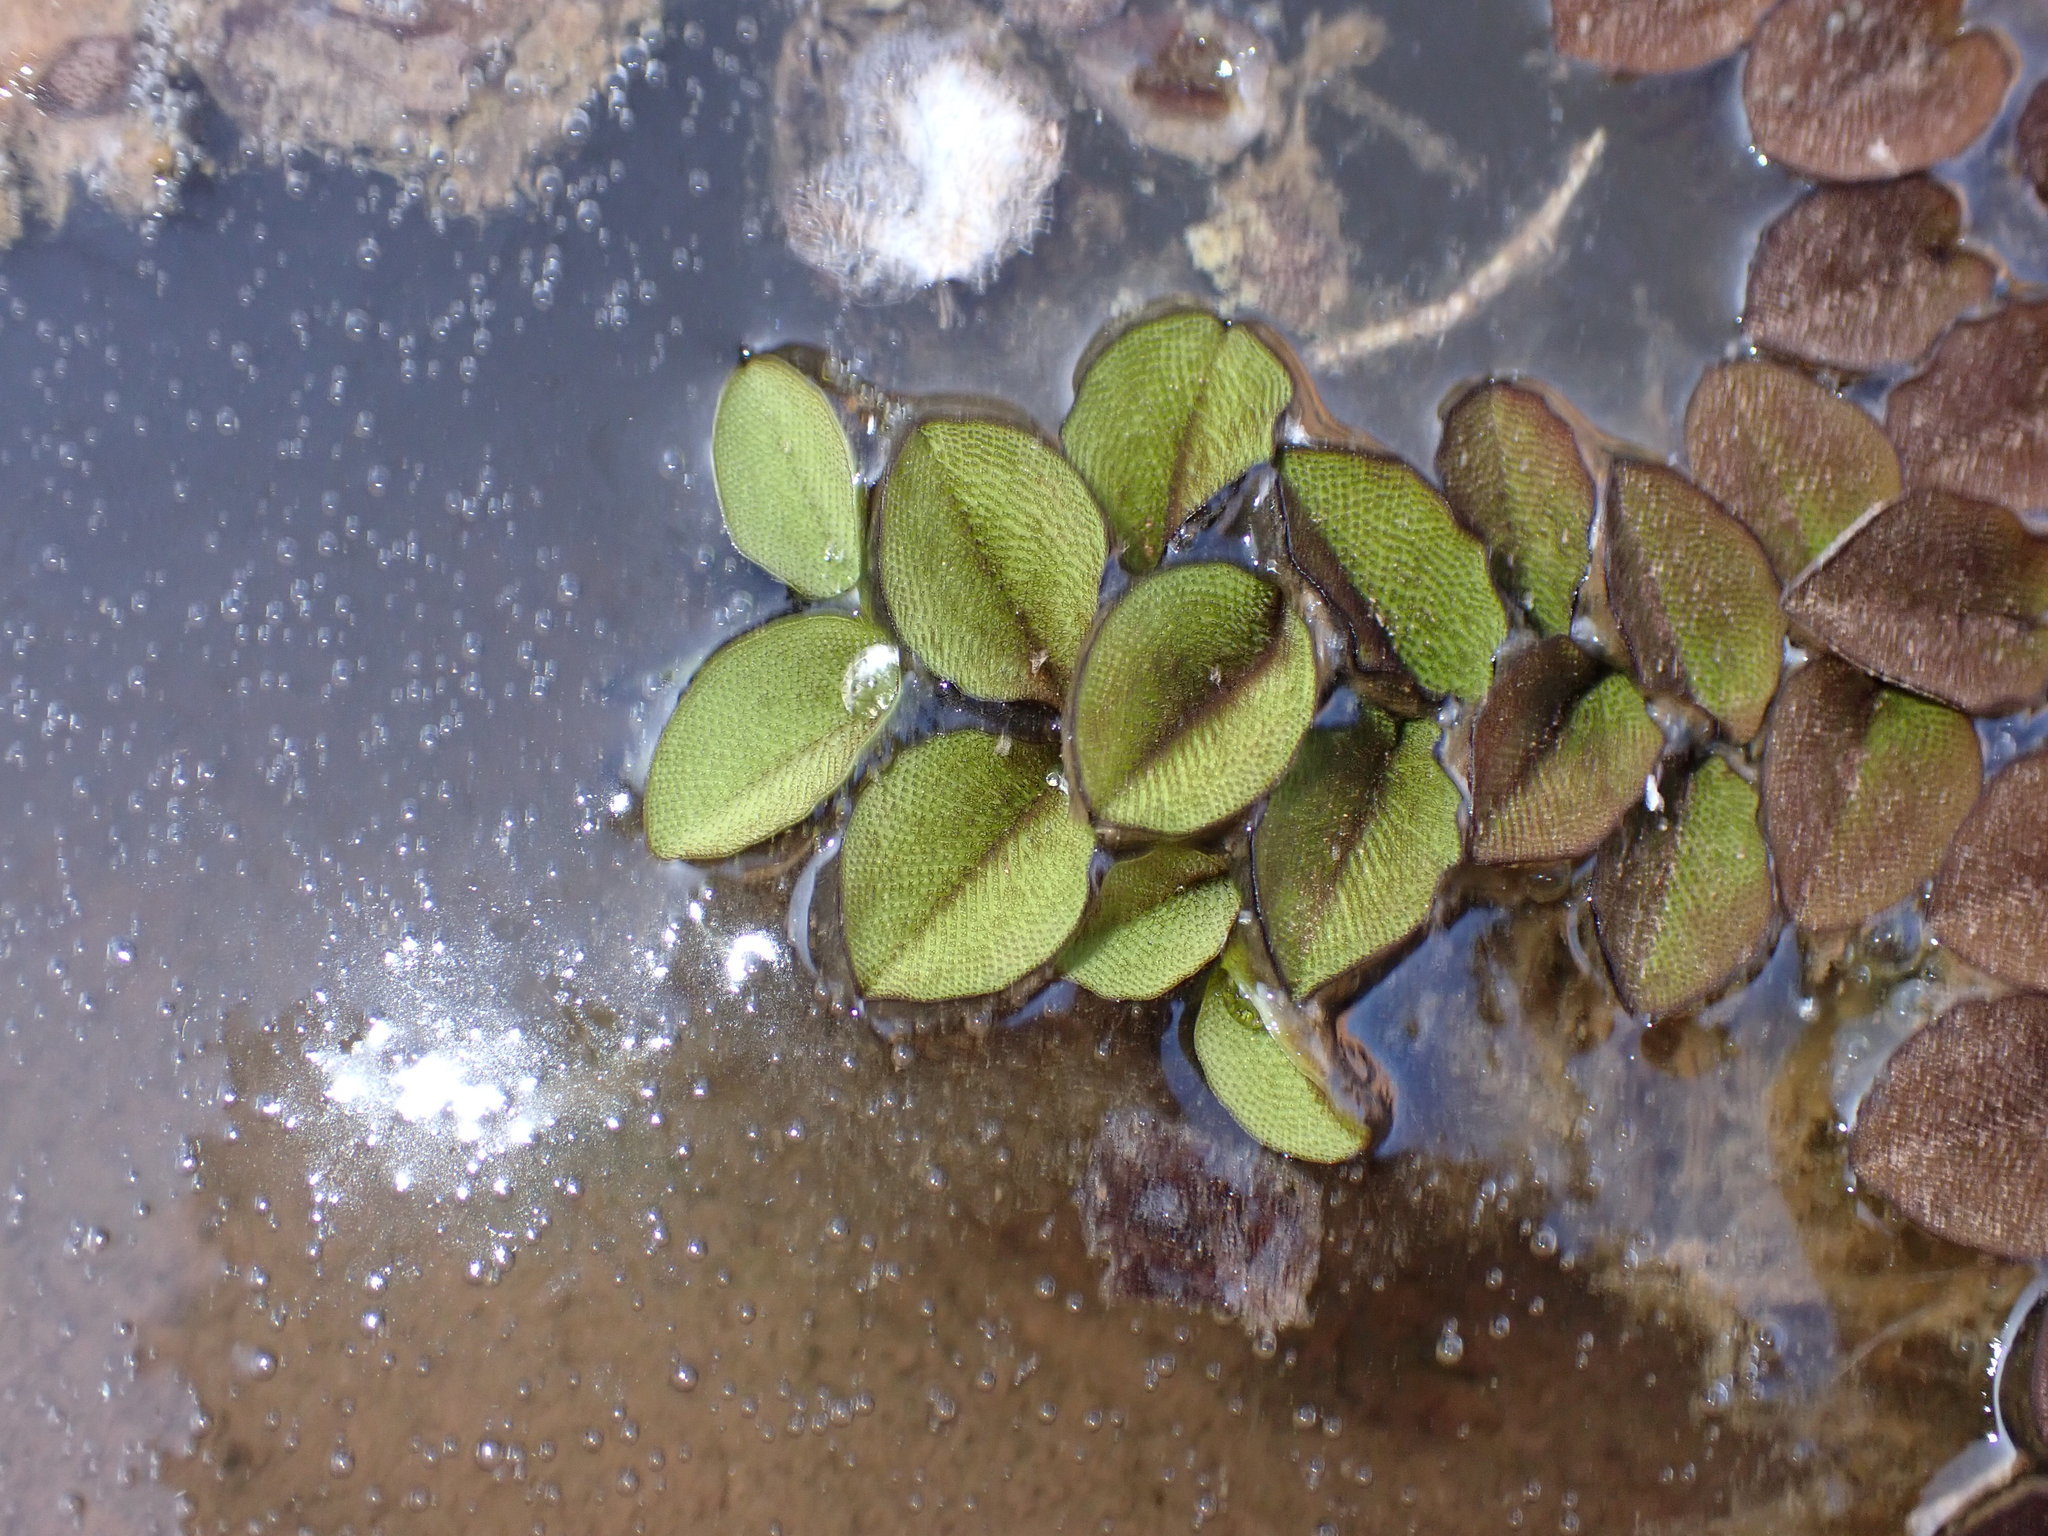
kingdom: Plantae
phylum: Tracheophyta
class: Polypodiopsida
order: Salviniales
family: Salviniaceae
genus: Salvinia
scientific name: Salvinia molesta
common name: Kariba weed
